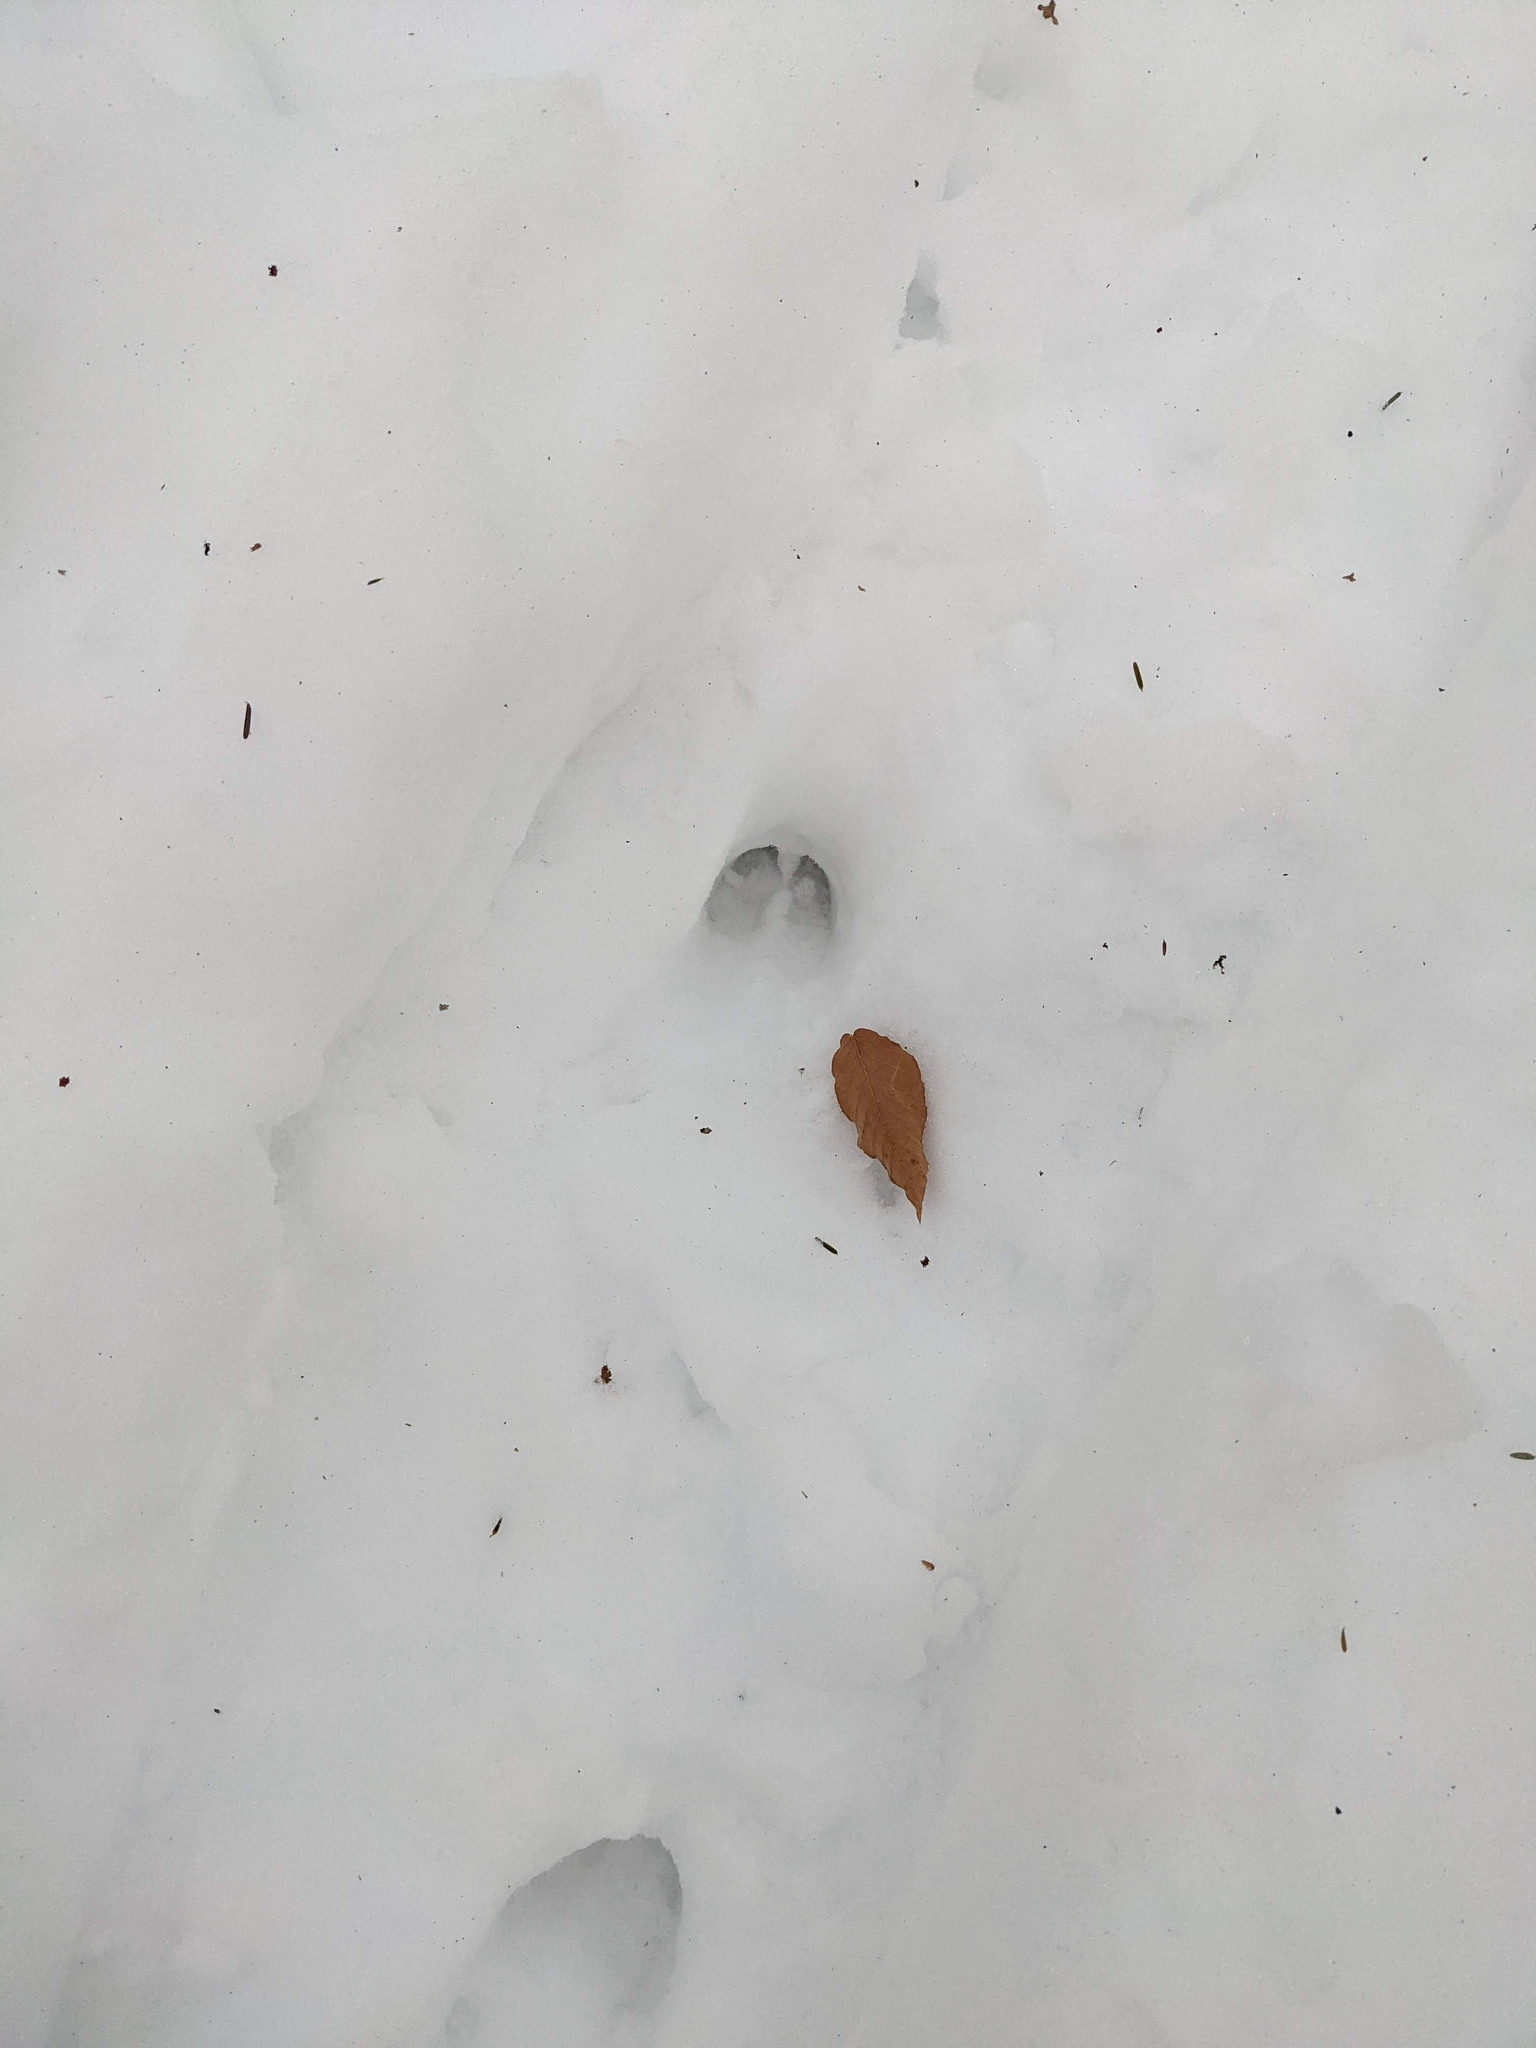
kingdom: Animalia
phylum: Chordata
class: Mammalia
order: Artiodactyla
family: Cervidae
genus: Odocoileus
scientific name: Odocoileus virginianus
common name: White-tailed deer
